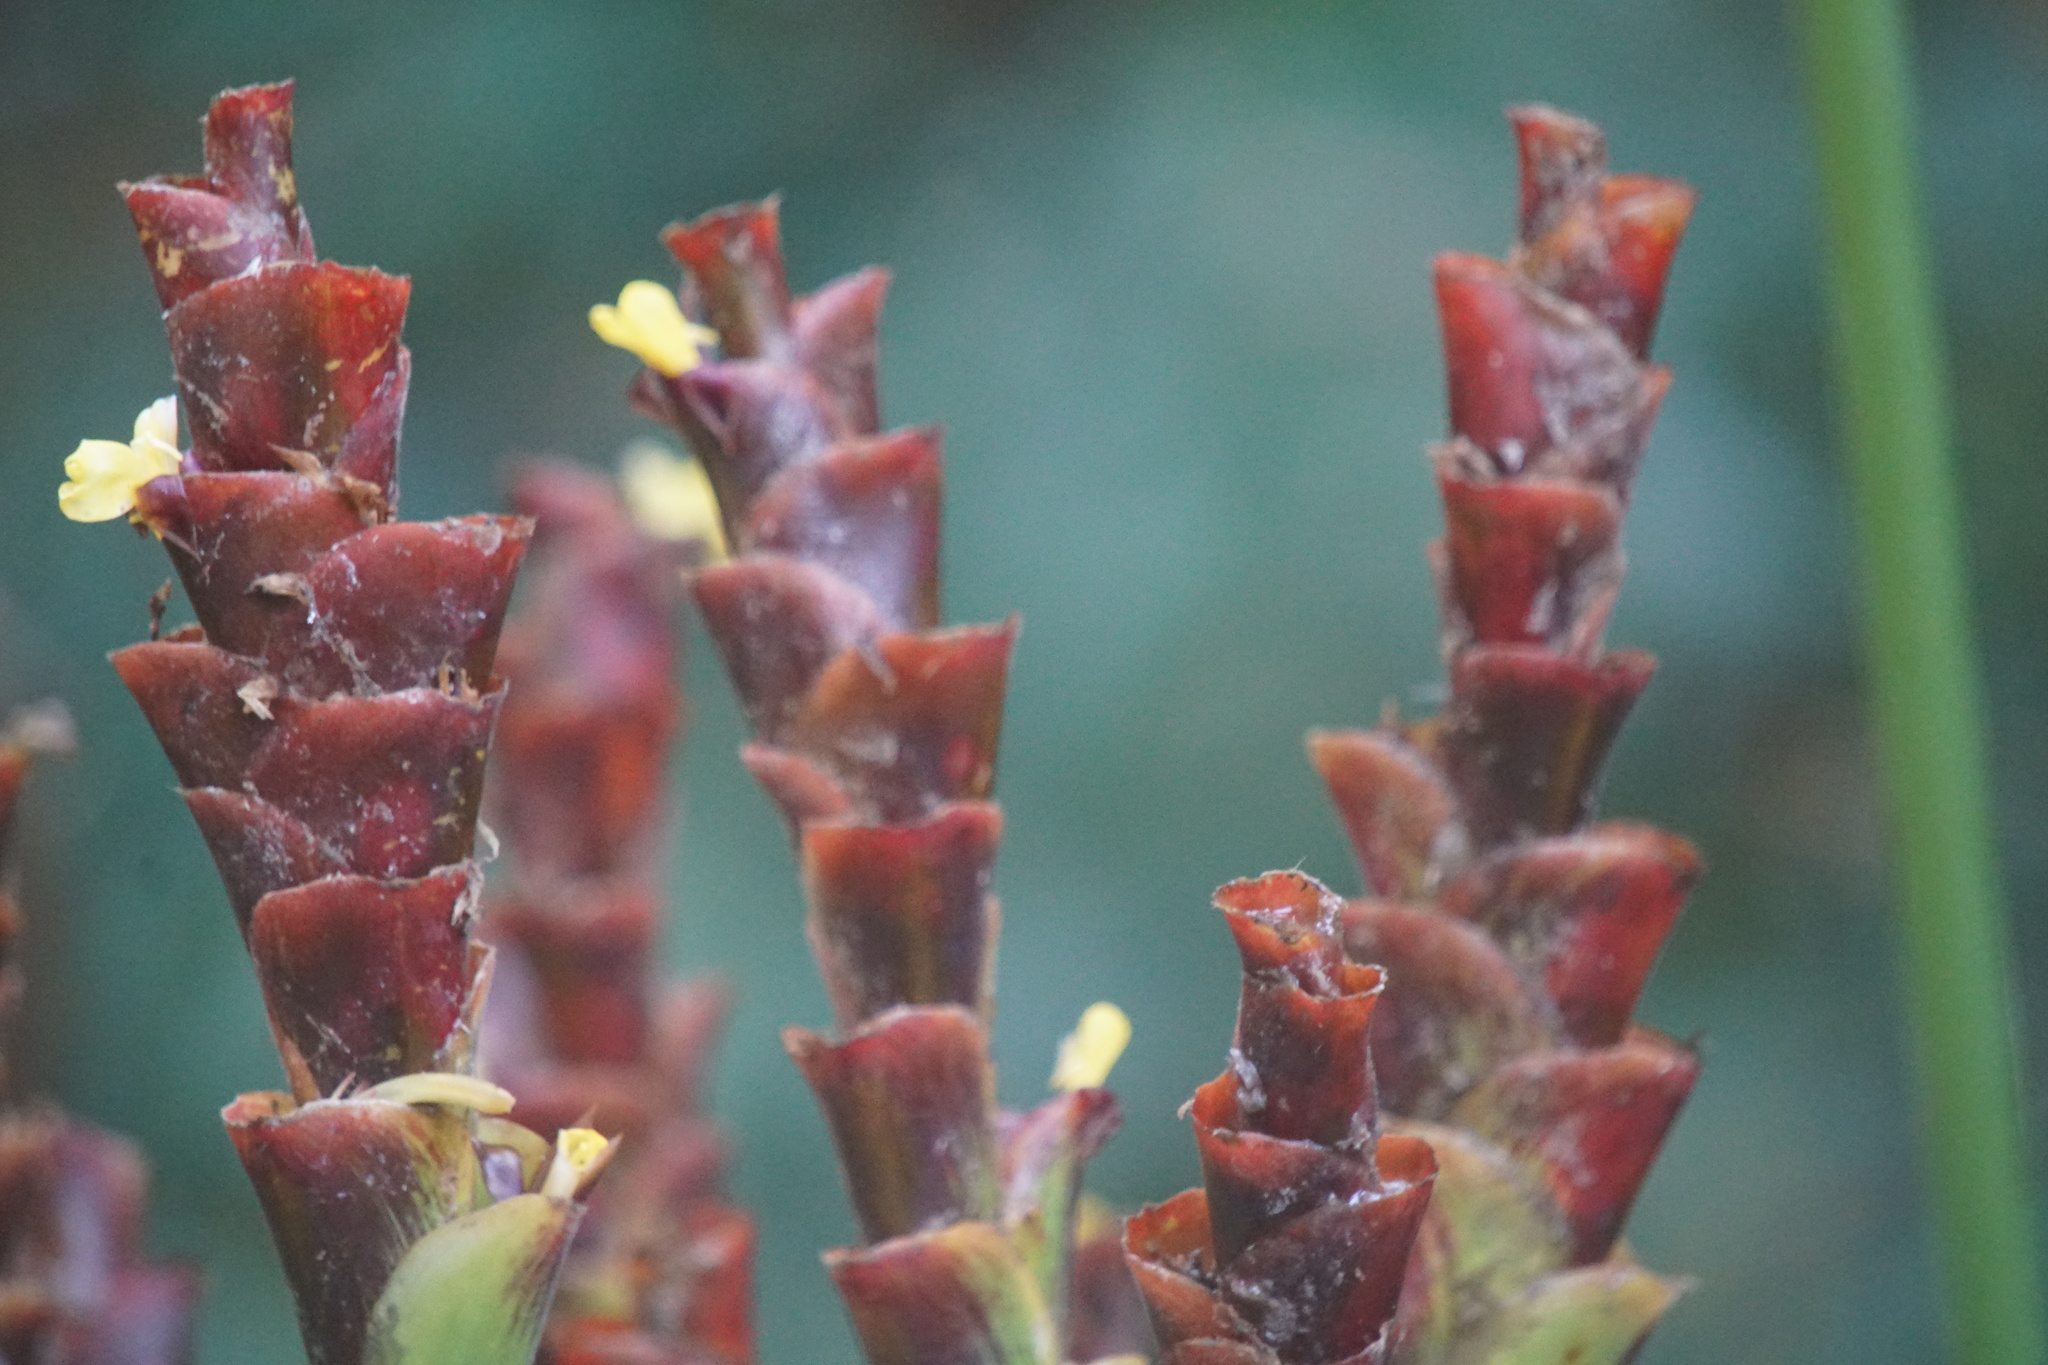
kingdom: Plantae
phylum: Tracheophyta
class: Liliopsida
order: Zingiberales
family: Marantaceae
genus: Calathea
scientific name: Calathea lutea
